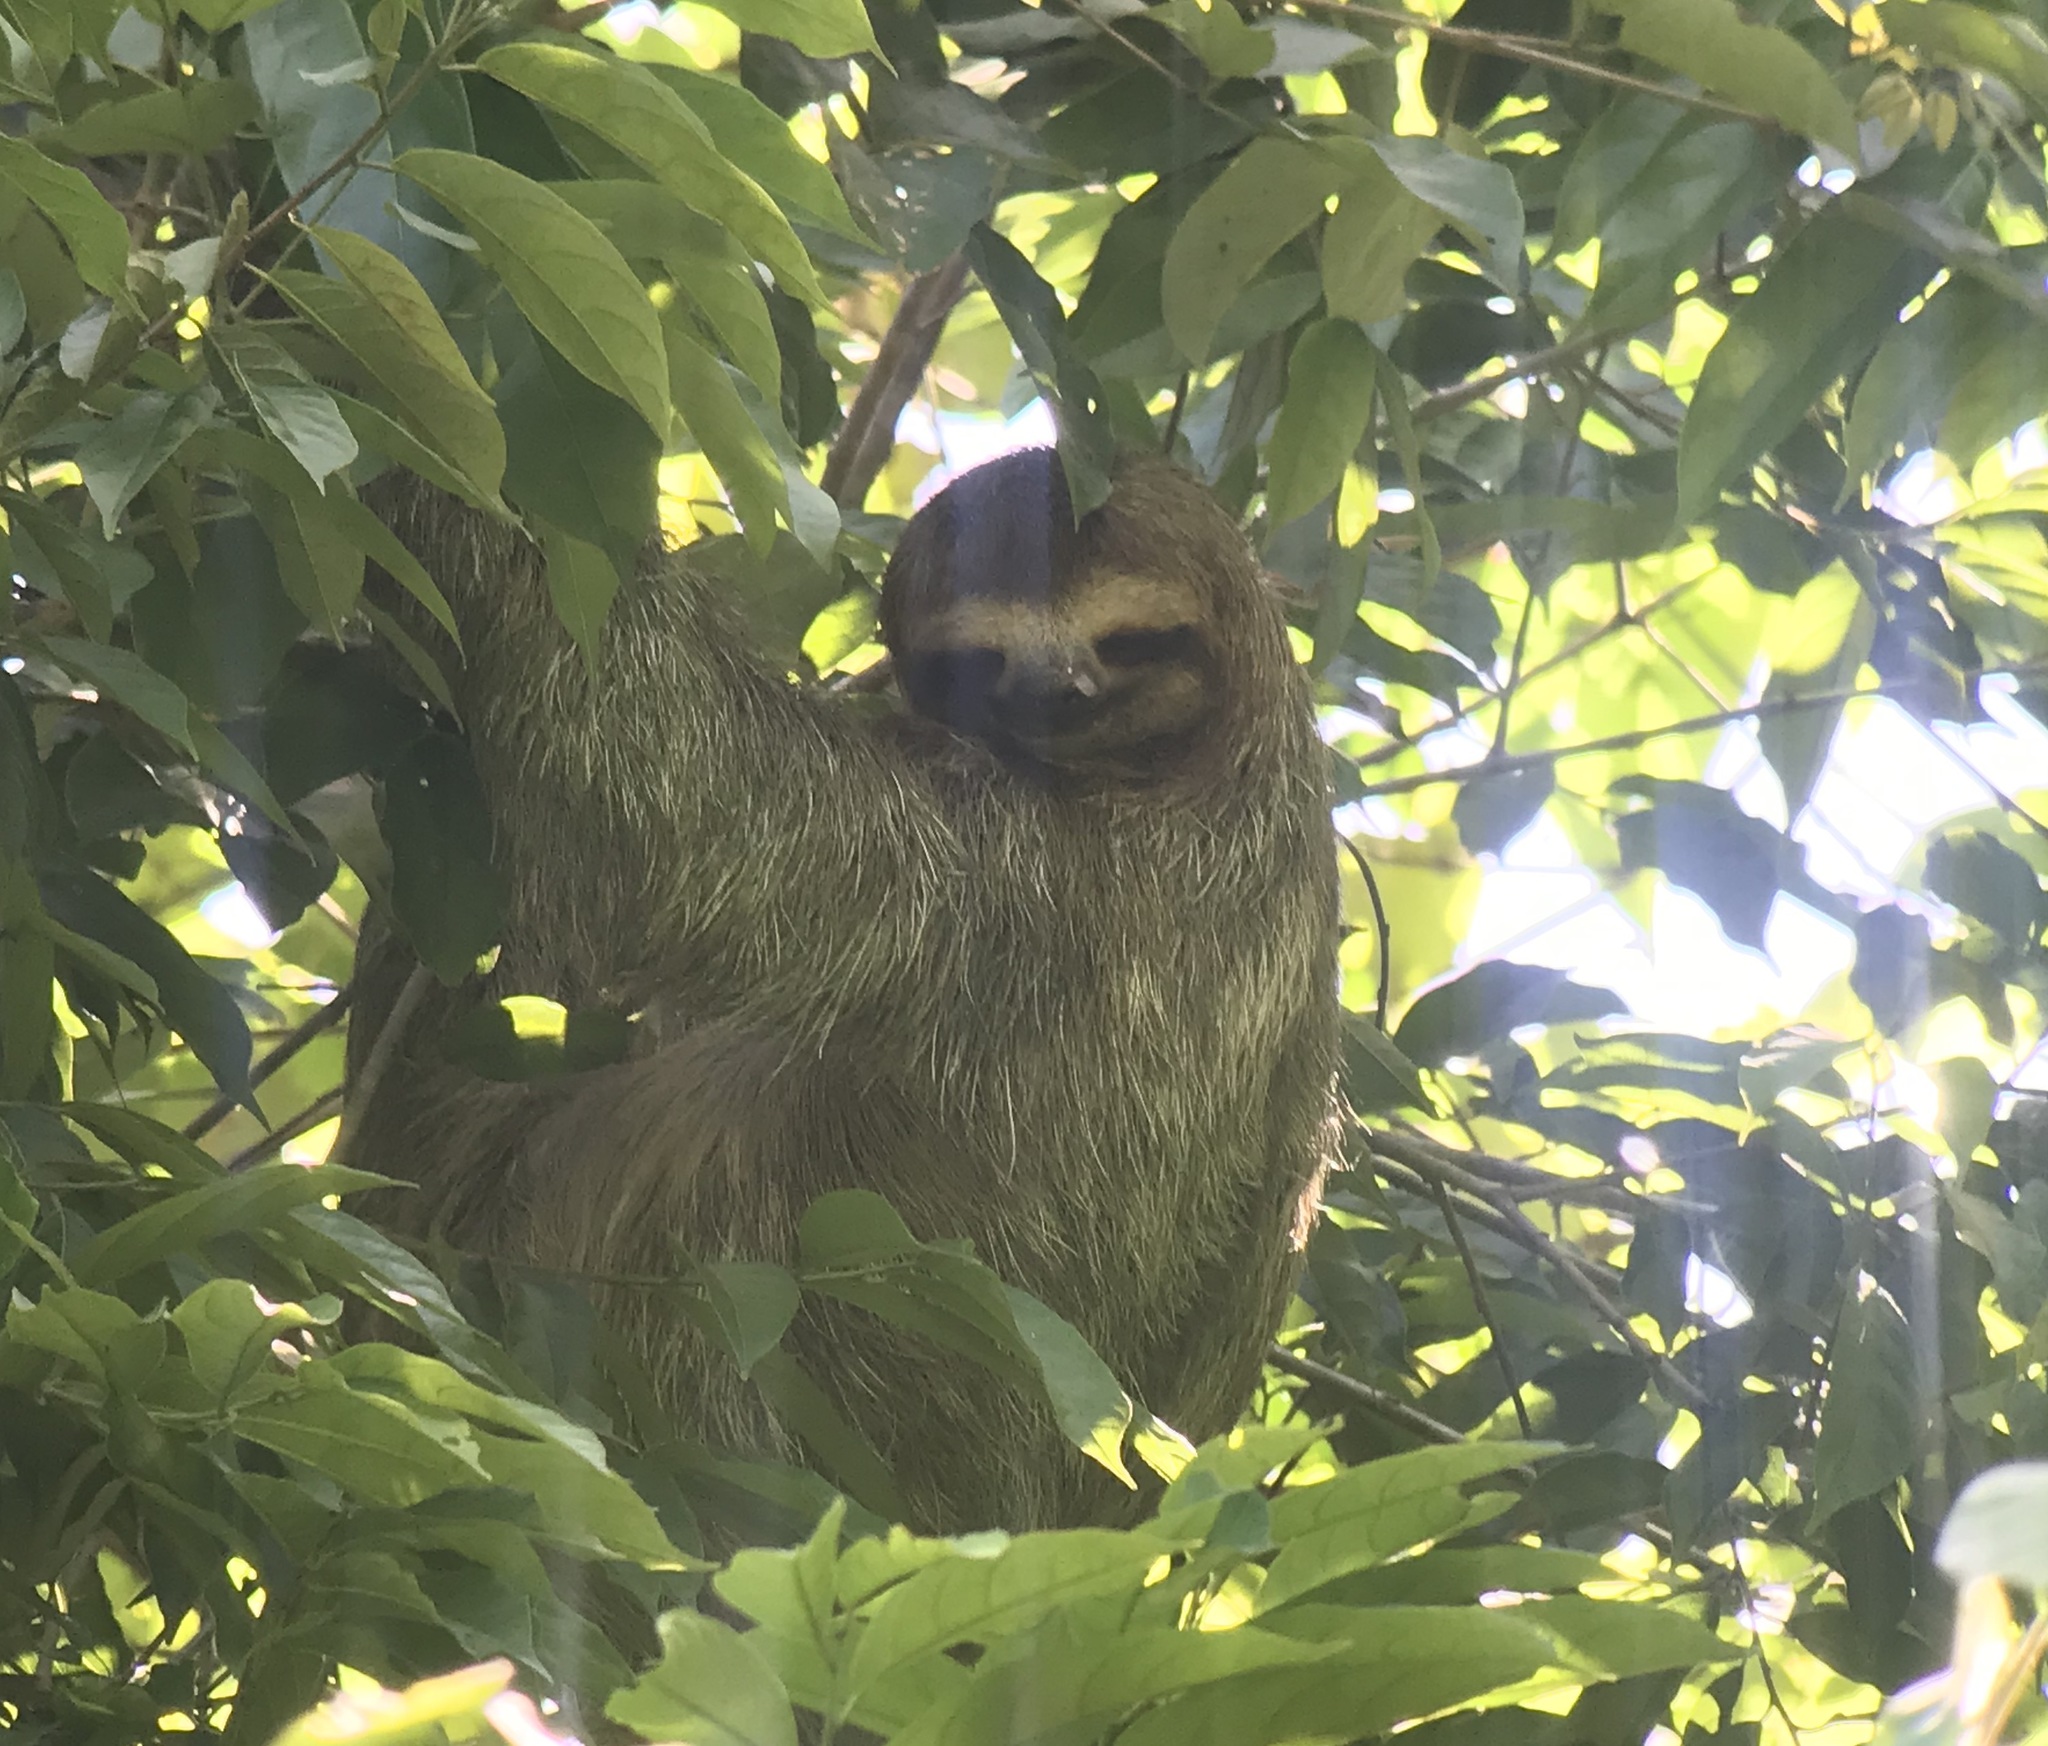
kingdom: Animalia
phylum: Chordata
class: Mammalia
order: Pilosa
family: Bradypodidae
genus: Bradypus
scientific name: Bradypus variegatus
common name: Brown-throated three-toed sloth
